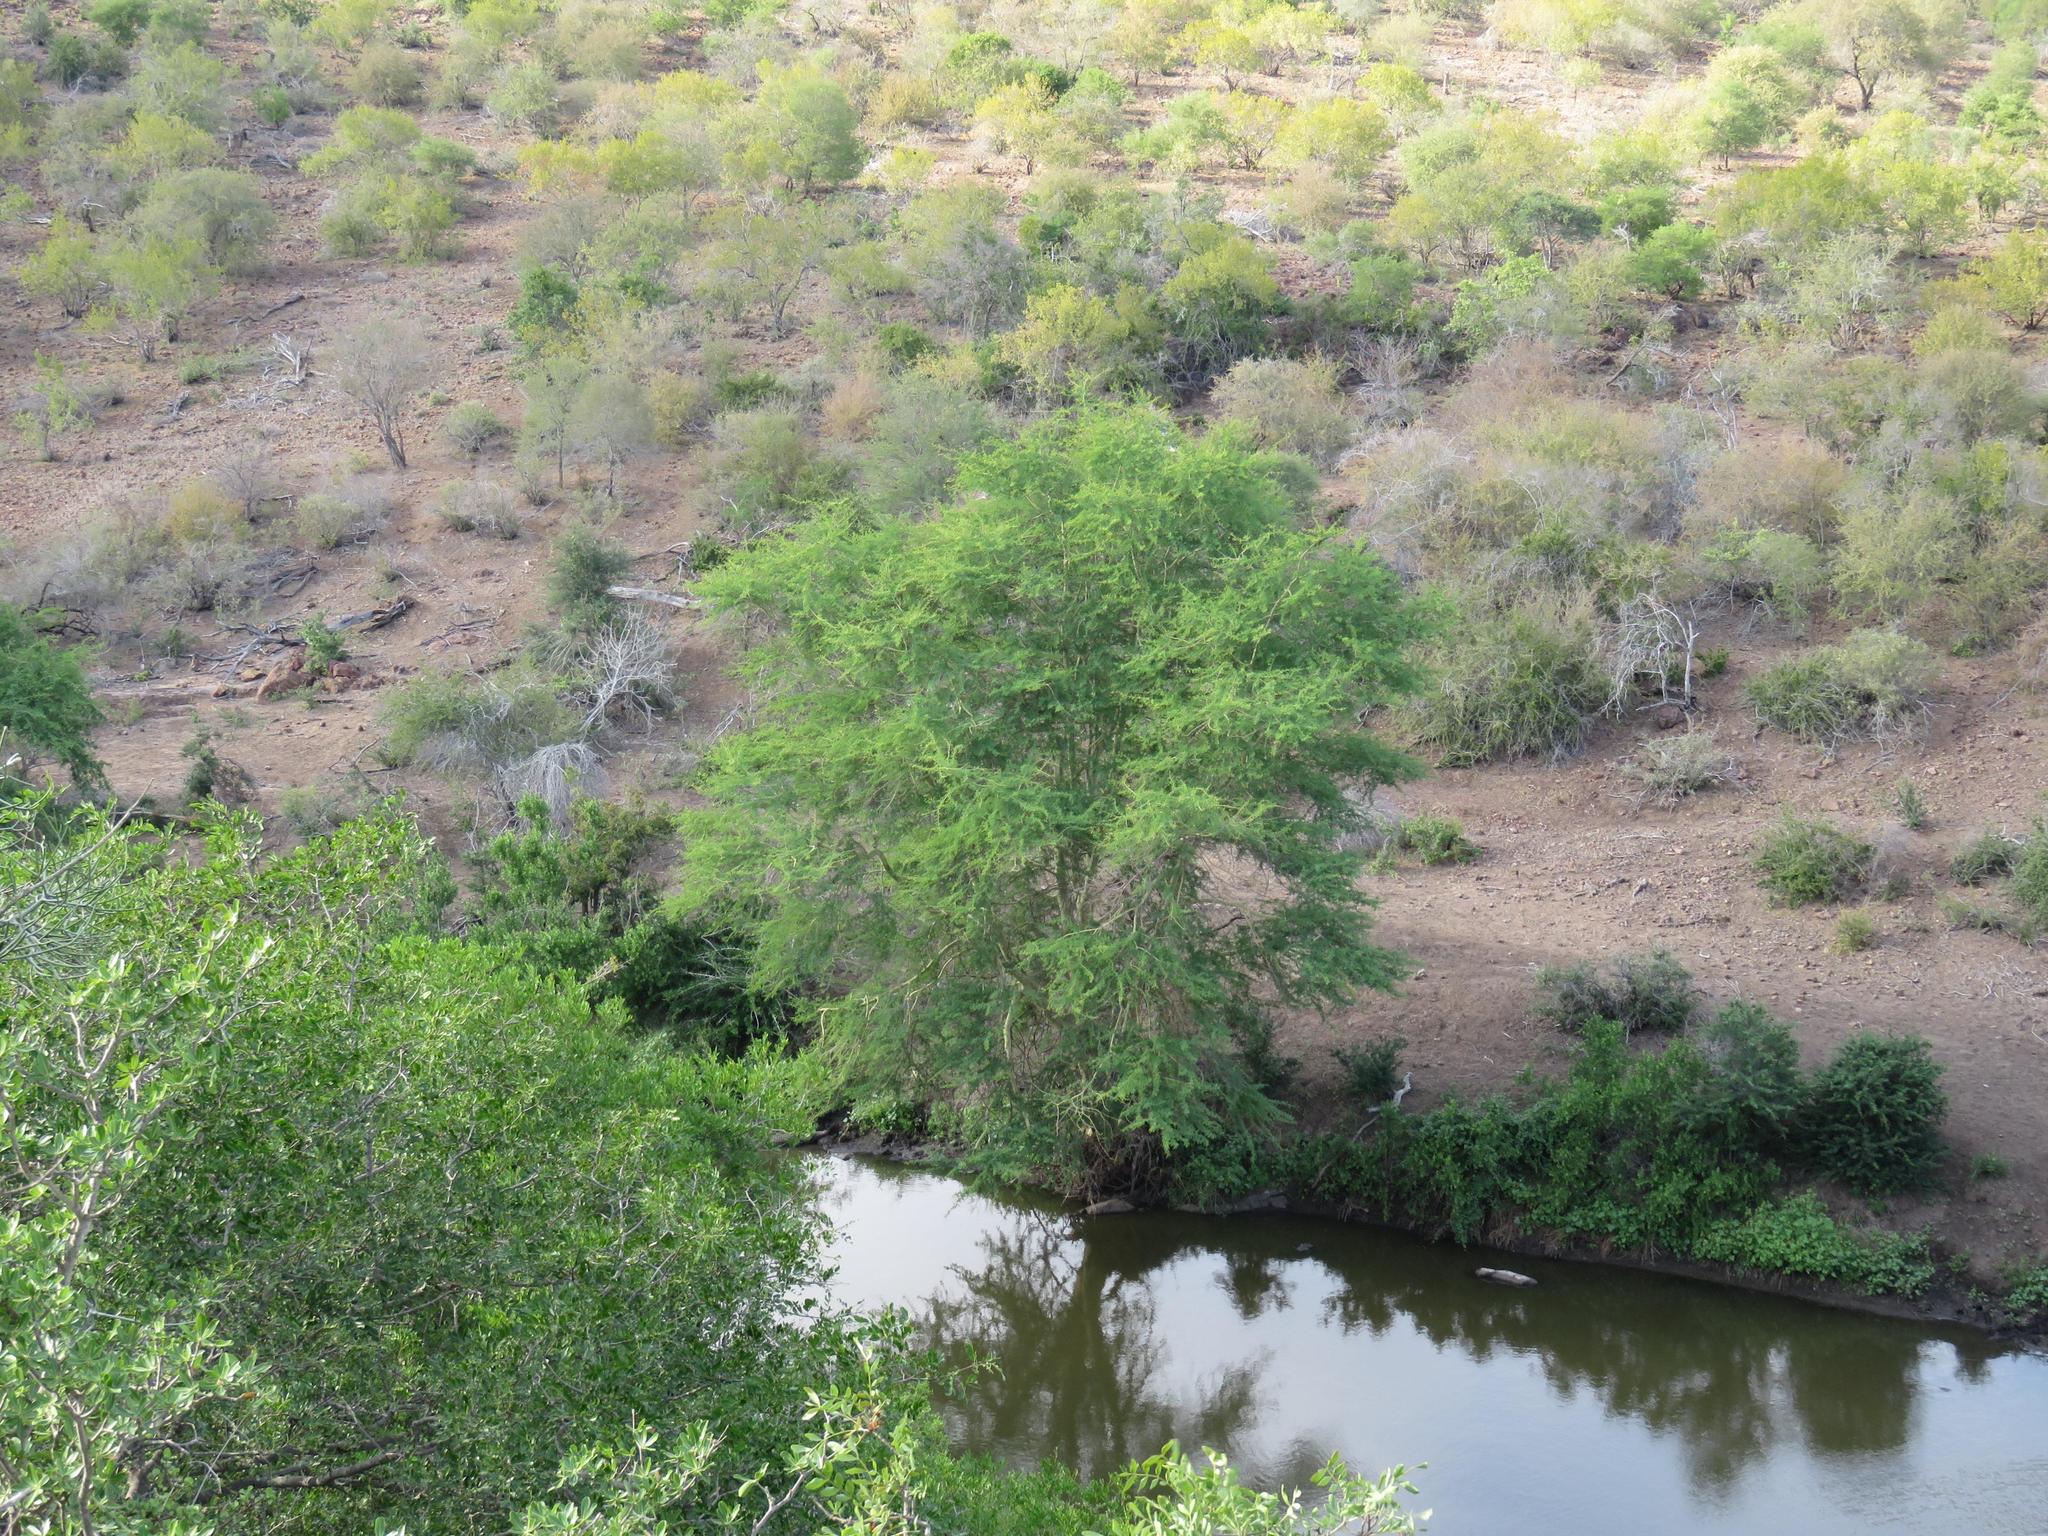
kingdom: Plantae
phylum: Tracheophyta
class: Magnoliopsida
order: Fabales
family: Fabaceae
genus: Vachellia
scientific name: Vachellia xanthophloea
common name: Fever tree
